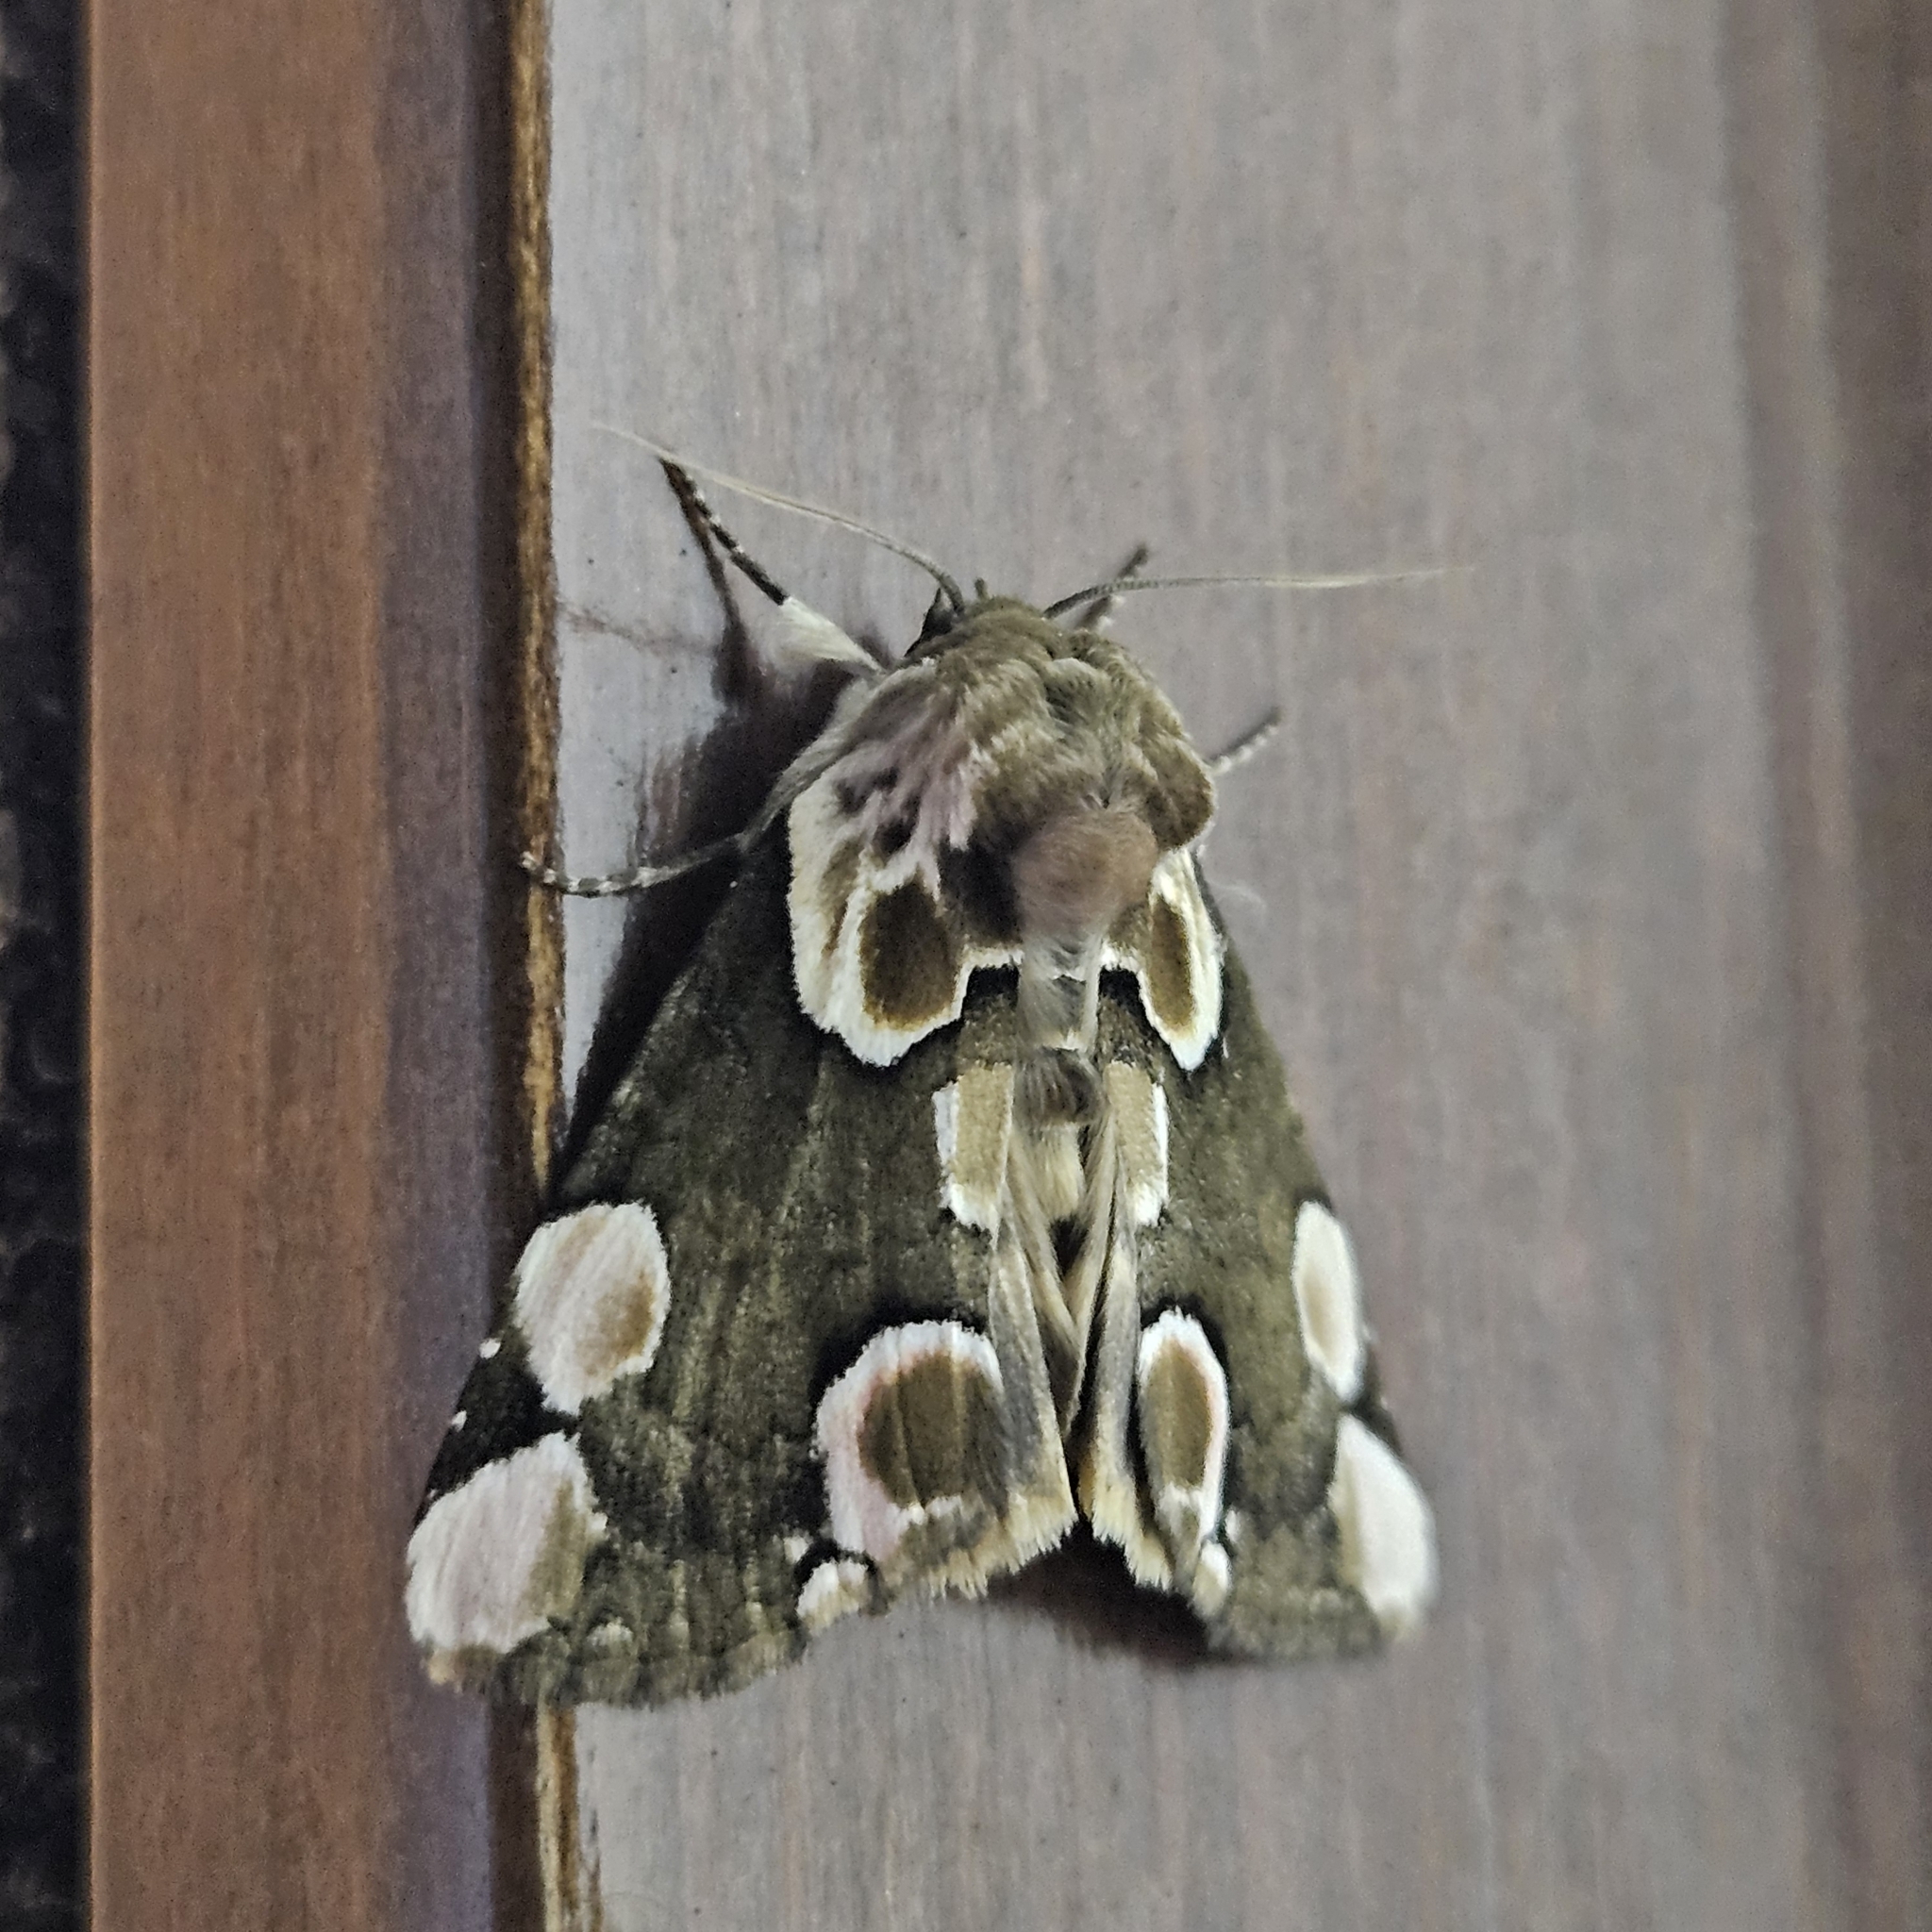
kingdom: Animalia
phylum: Arthropoda
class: Insecta
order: Lepidoptera
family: Drepanidae
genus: Thyatira
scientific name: Thyatira batis
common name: Peach blossom
